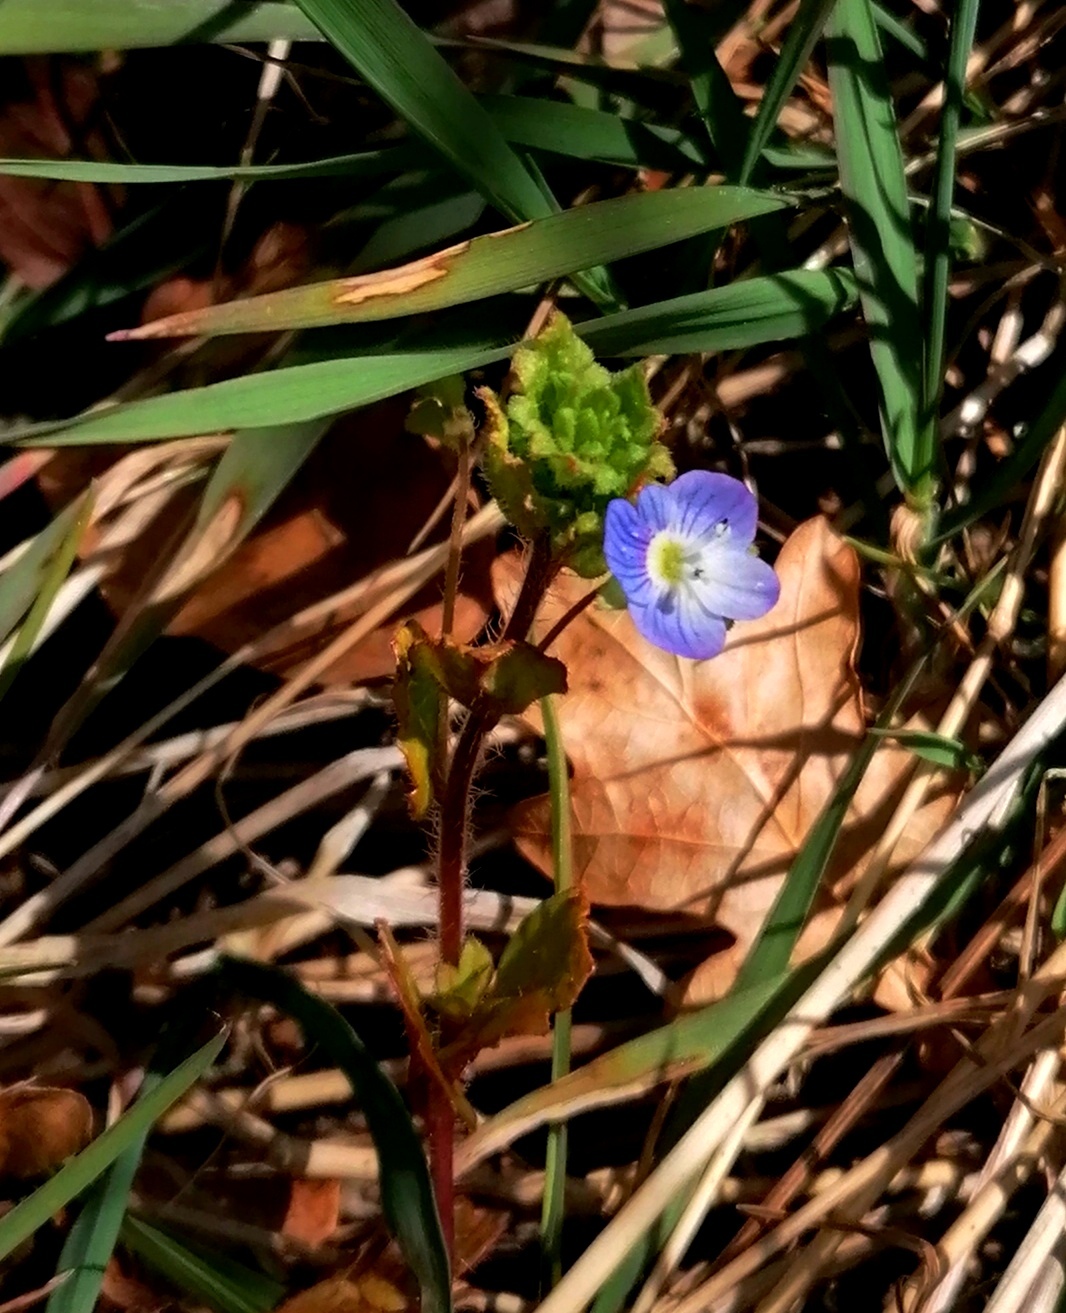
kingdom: Plantae
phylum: Tracheophyta
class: Magnoliopsida
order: Lamiales
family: Plantaginaceae
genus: Veronica
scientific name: Veronica persica
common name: Common field-speedwell
